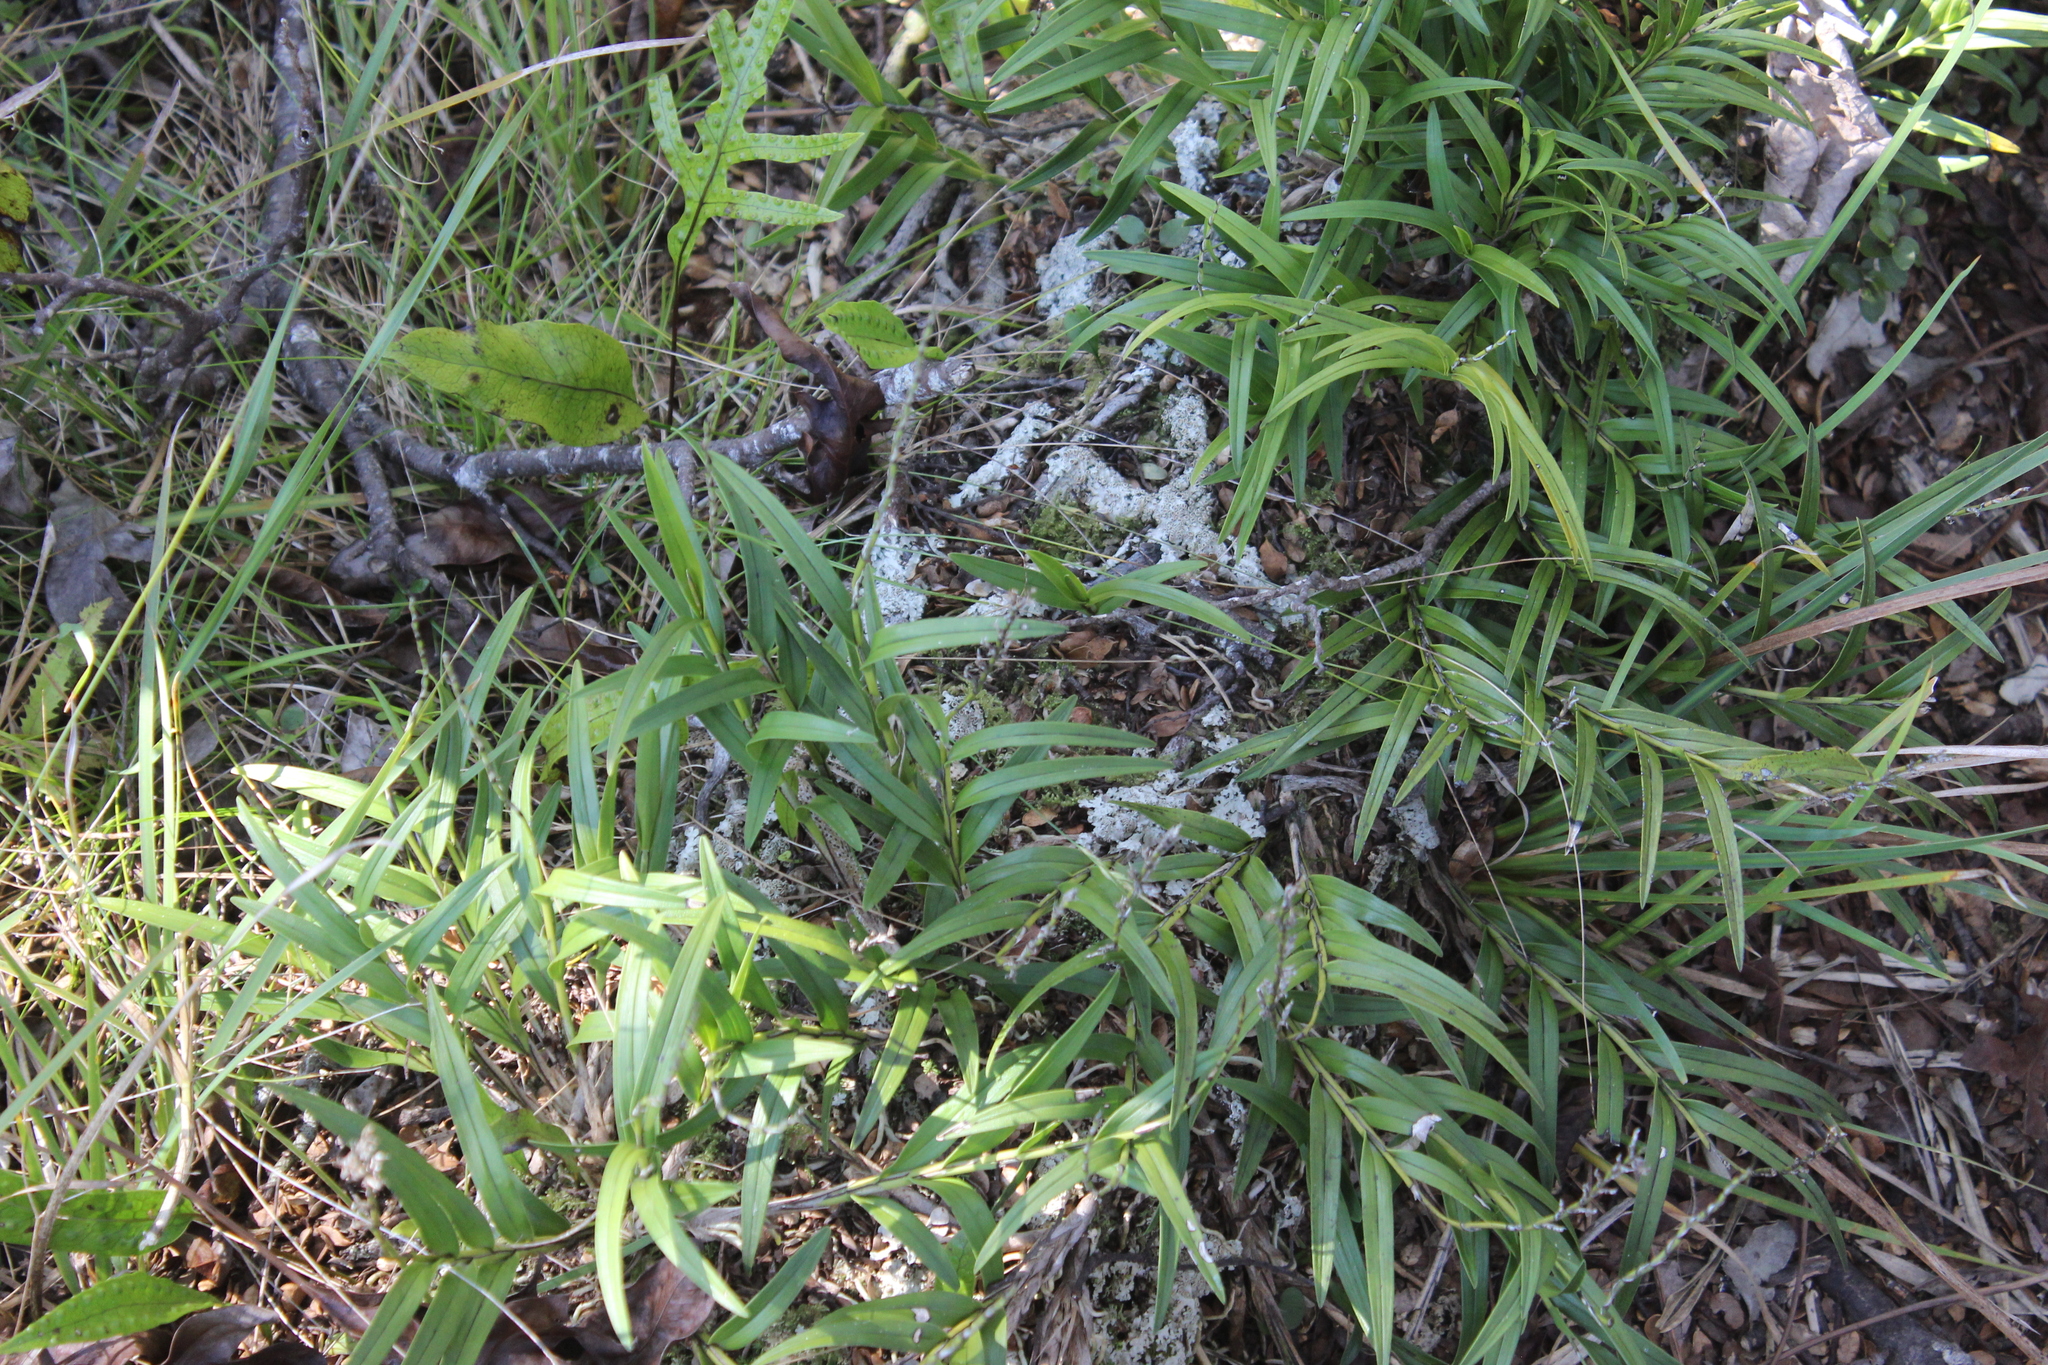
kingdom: Plantae
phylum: Tracheophyta
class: Liliopsida
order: Asparagales
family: Orchidaceae
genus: Earina
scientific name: Earina autumnalis
